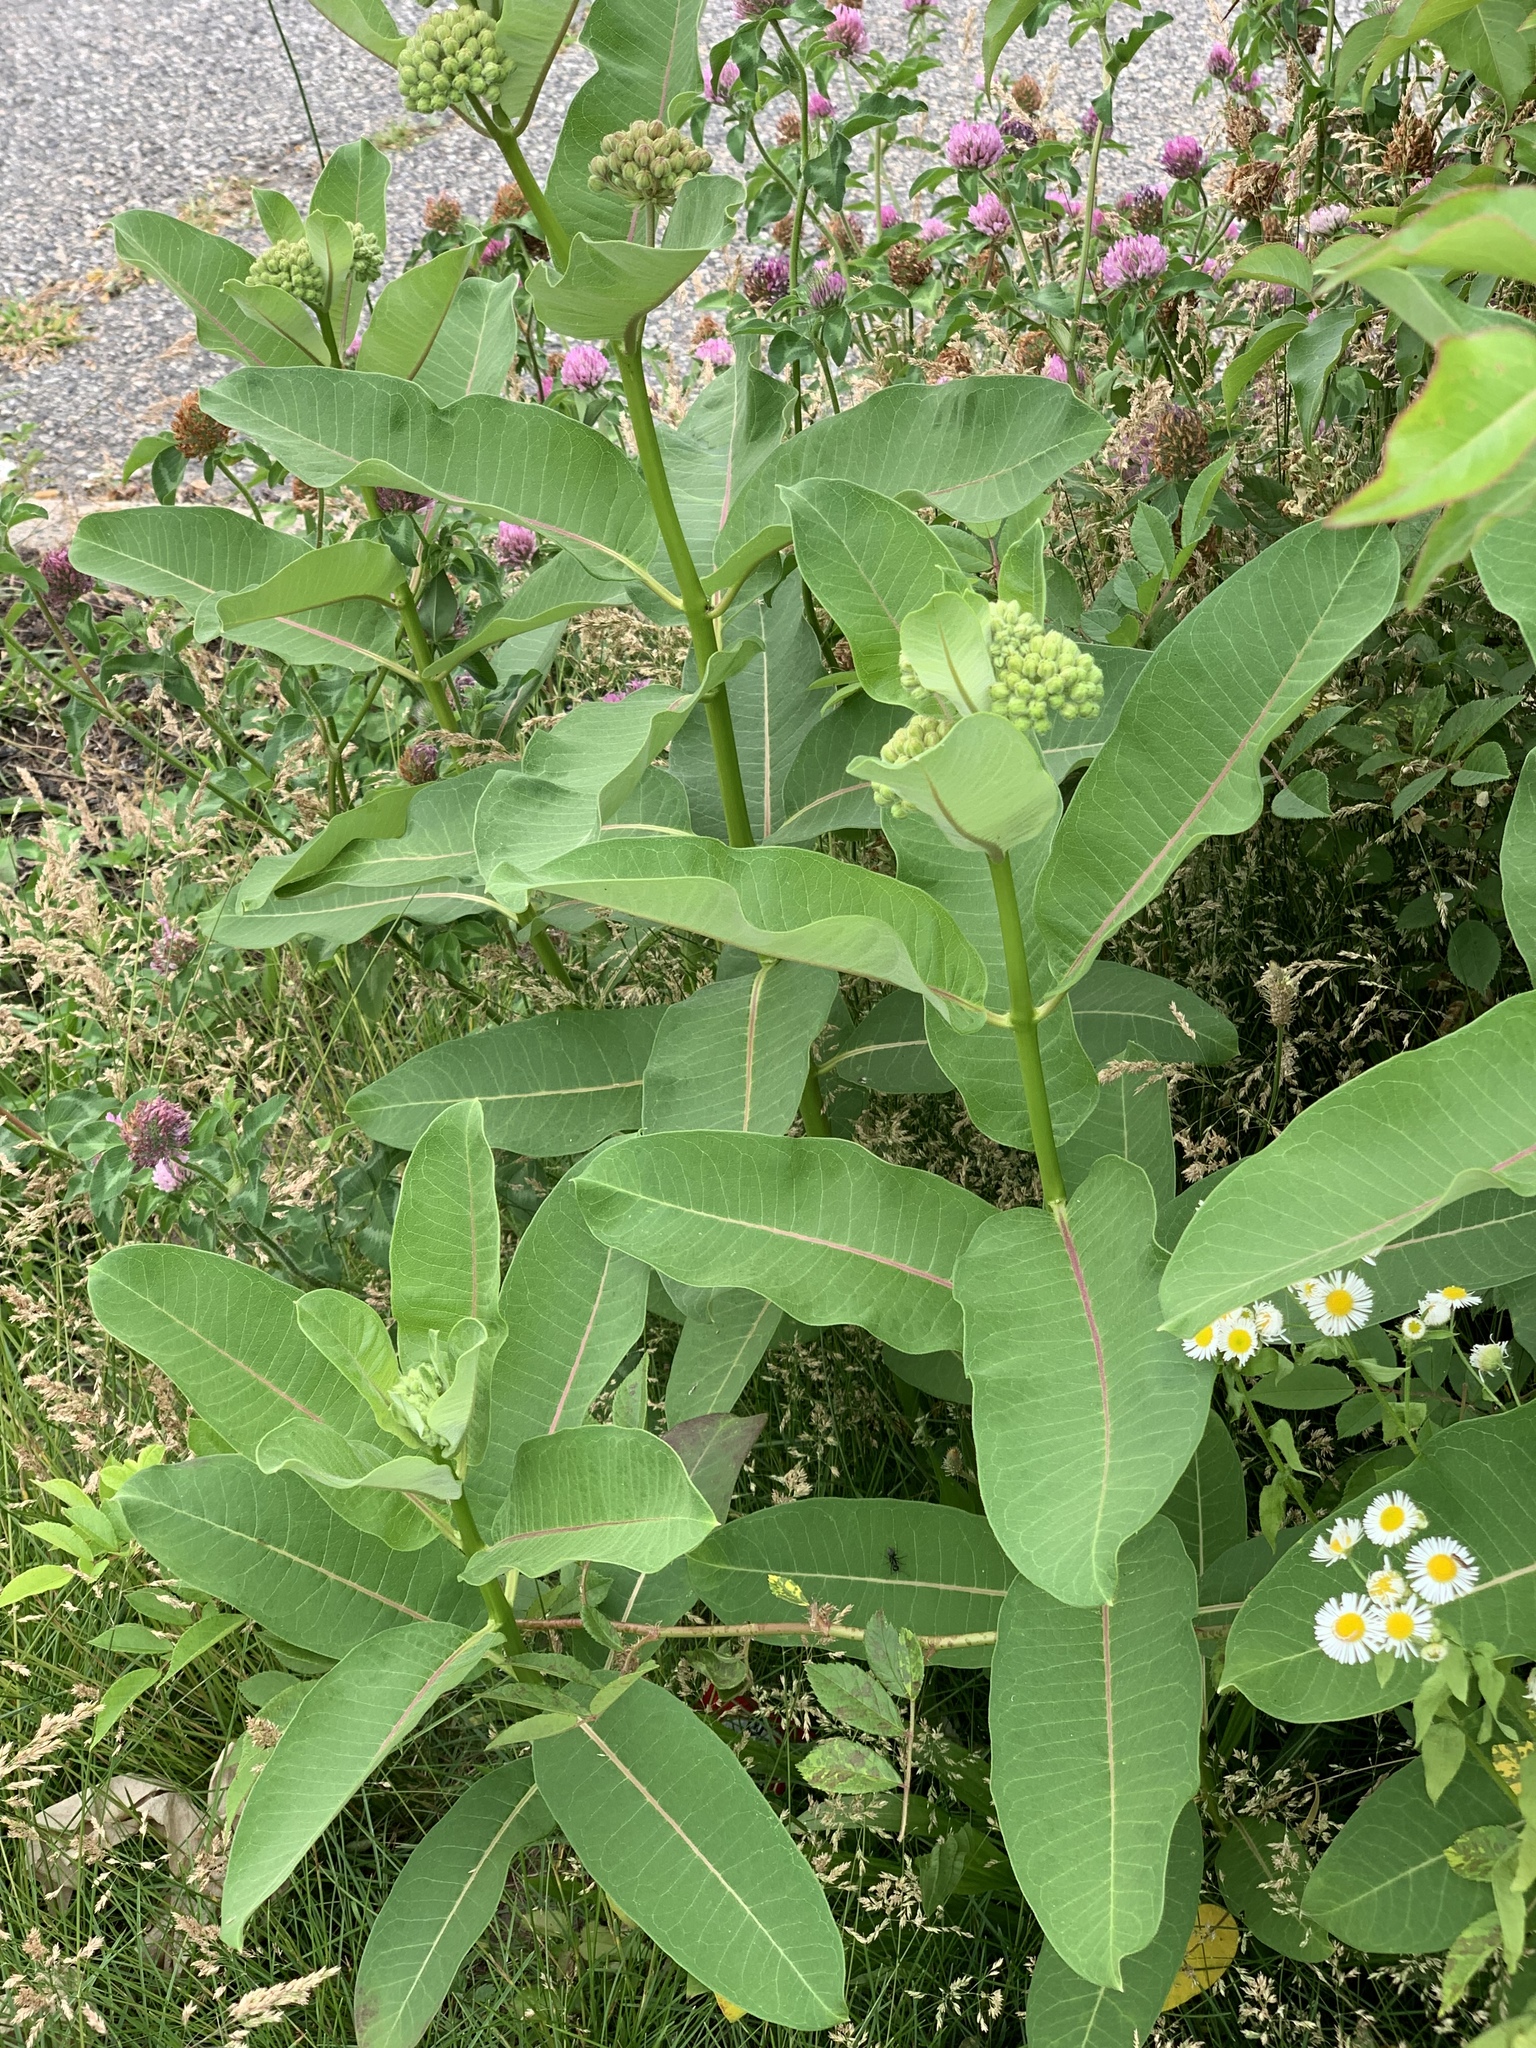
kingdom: Plantae
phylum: Tracheophyta
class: Magnoliopsida
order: Gentianales
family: Apocynaceae
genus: Asclepias
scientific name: Asclepias syriaca
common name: Common milkweed
